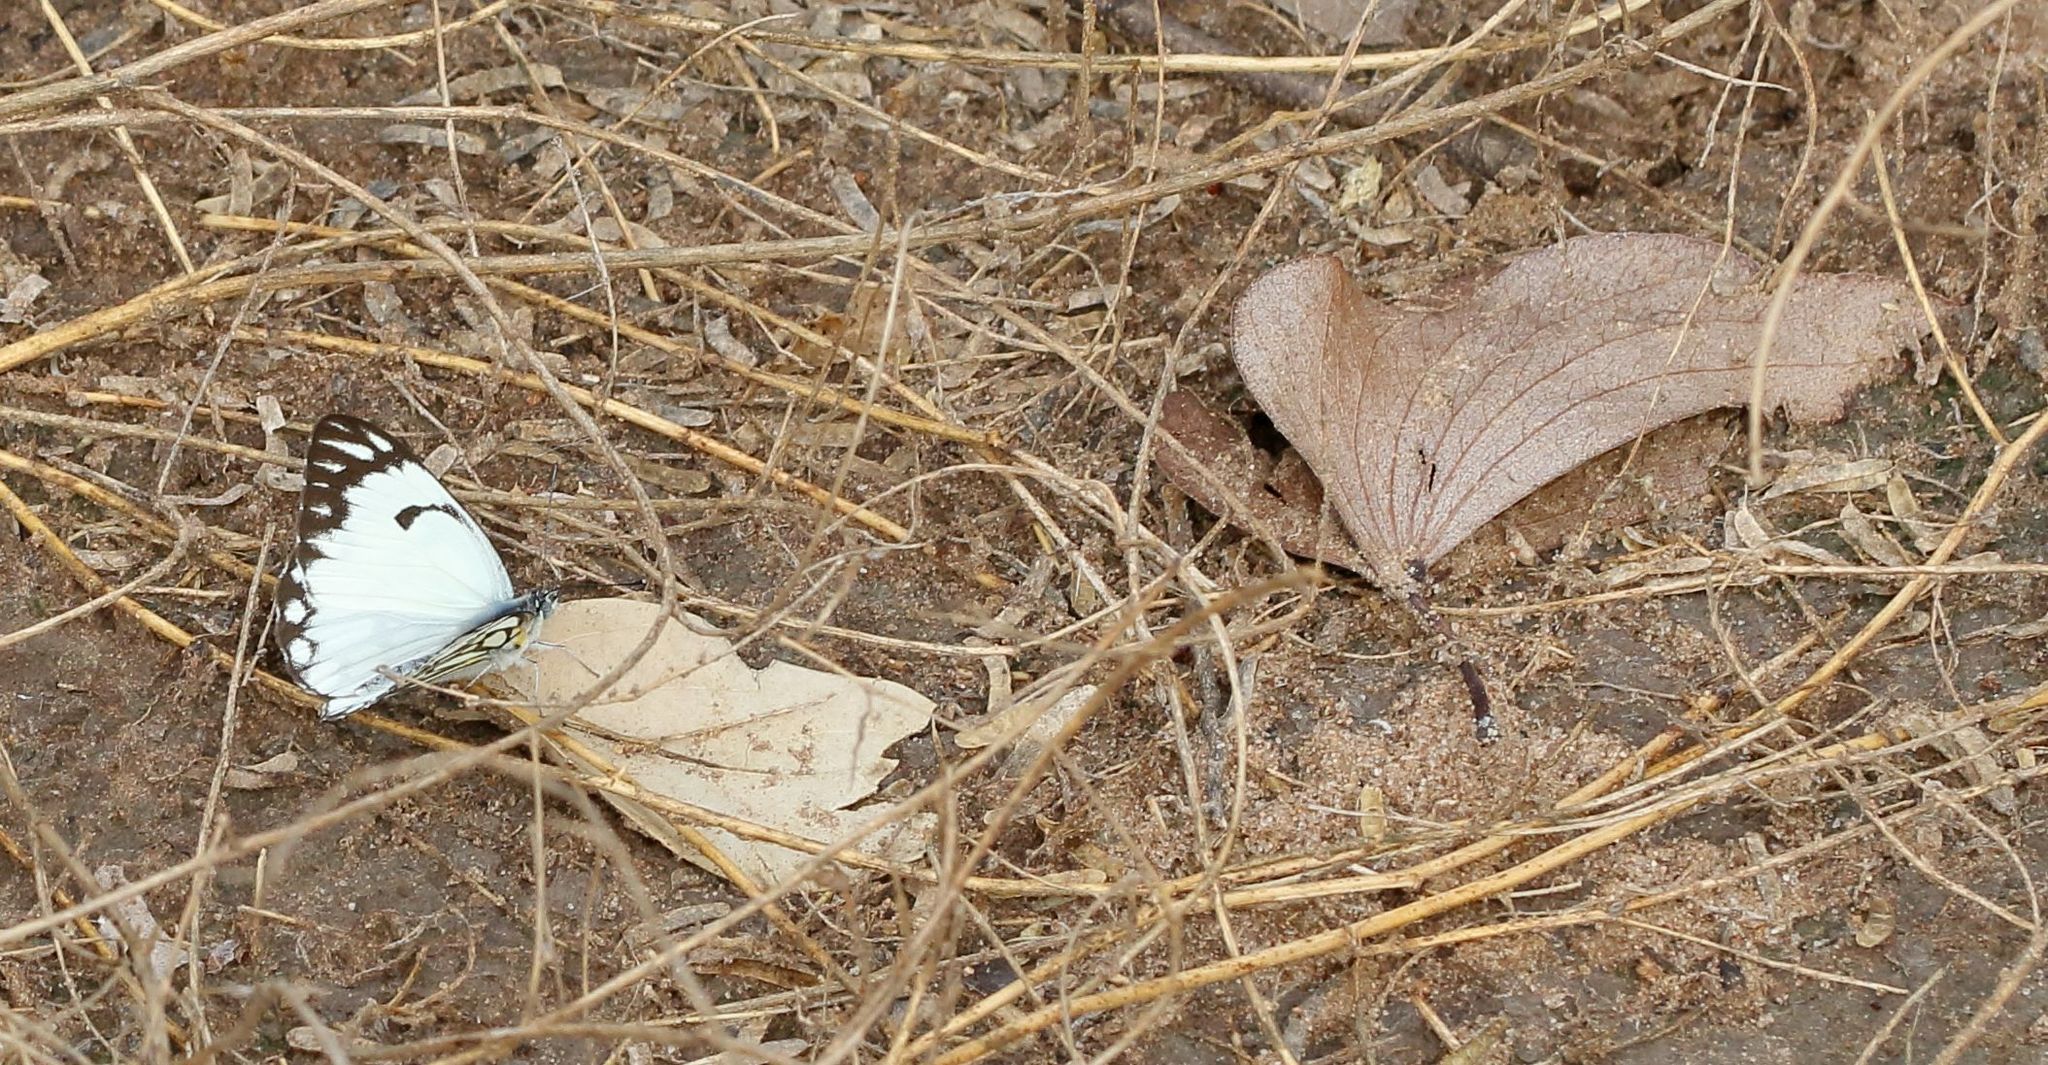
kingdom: Animalia
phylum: Arthropoda
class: Insecta
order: Lepidoptera
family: Pieridae
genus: Belenois
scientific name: Belenois aurota
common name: Brown-veined white
